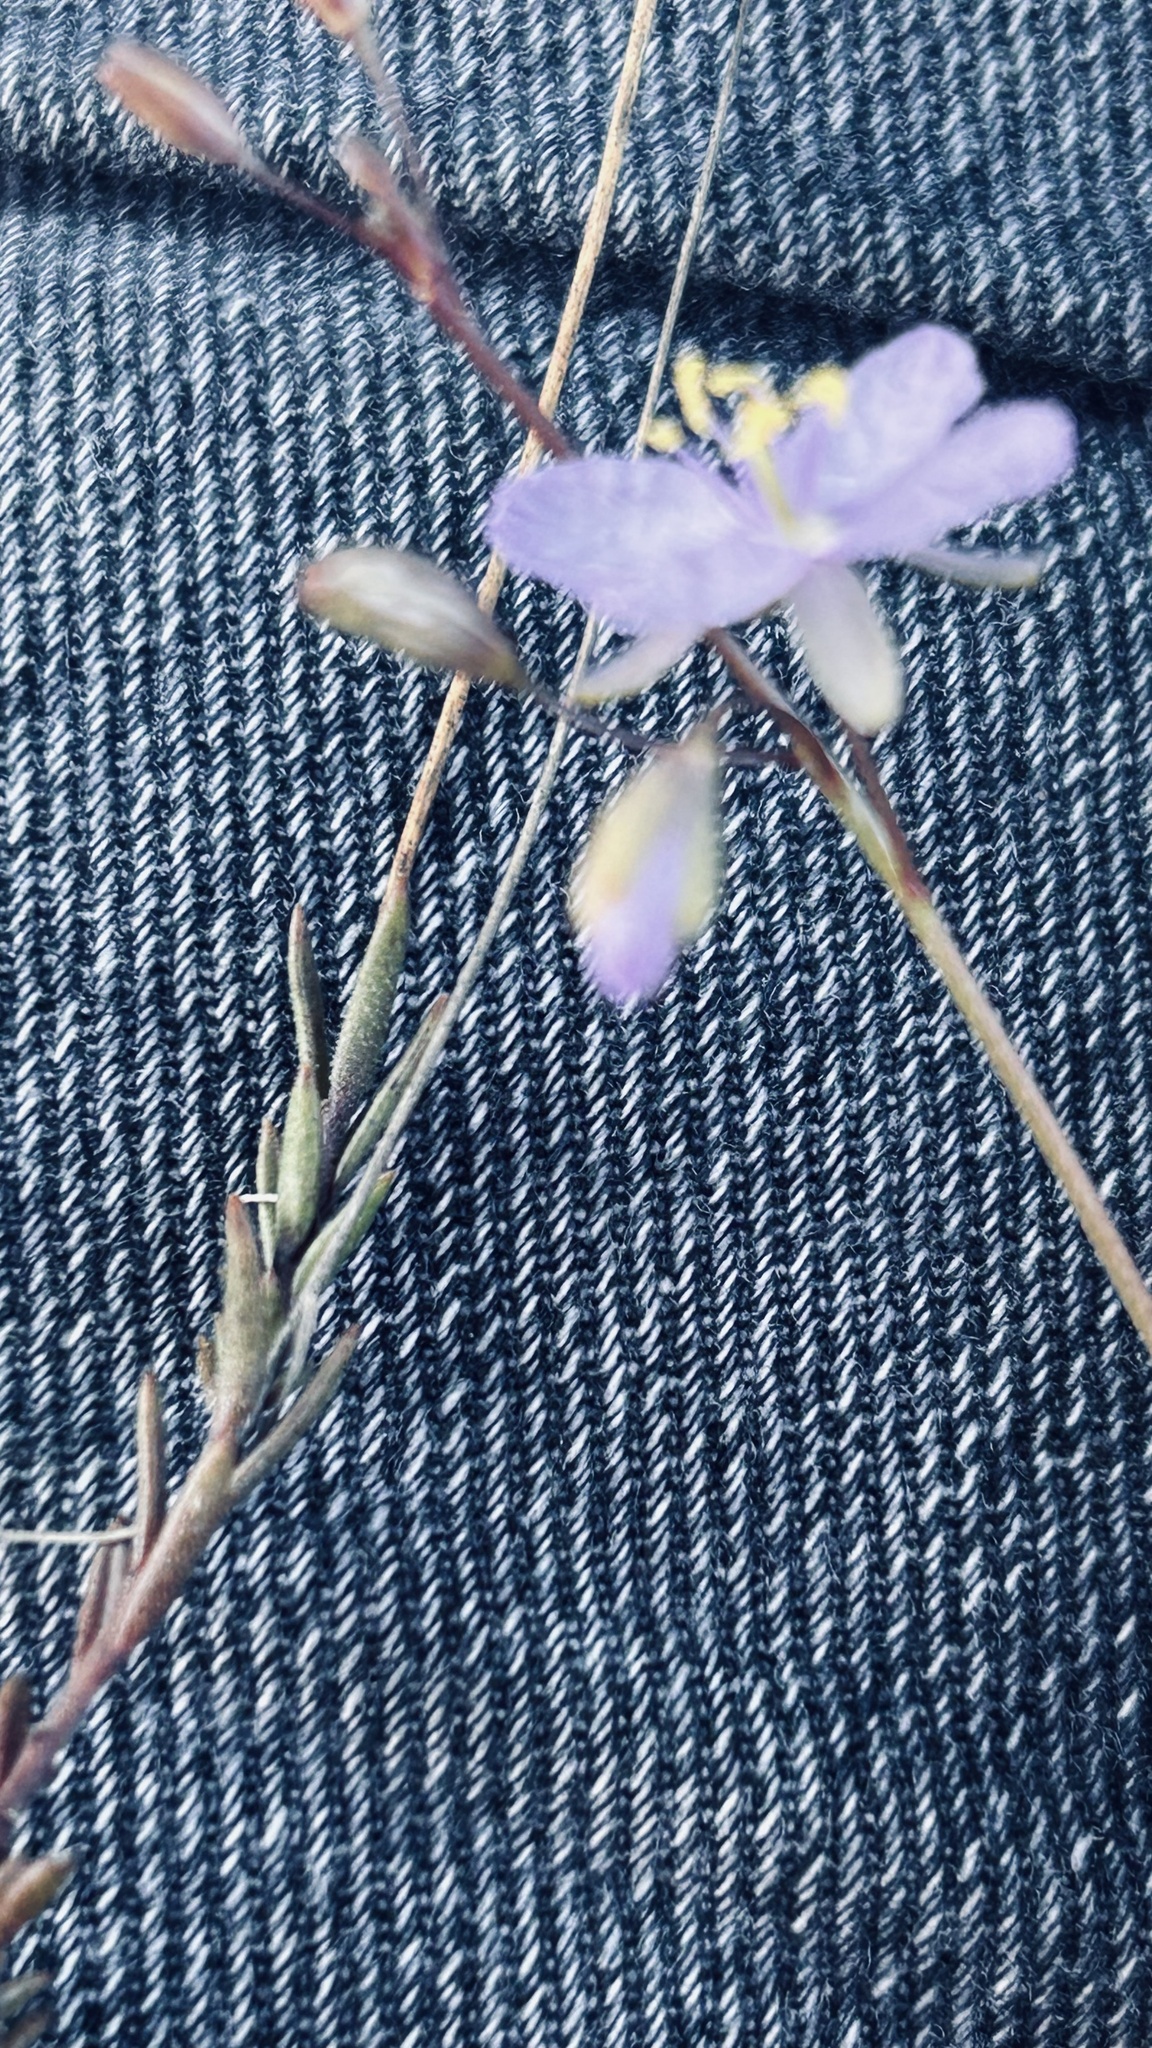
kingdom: Plantae
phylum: Tracheophyta
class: Magnoliopsida
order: Brassicales
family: Brassicaceae
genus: Heliophila
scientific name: Heliophila subulata
